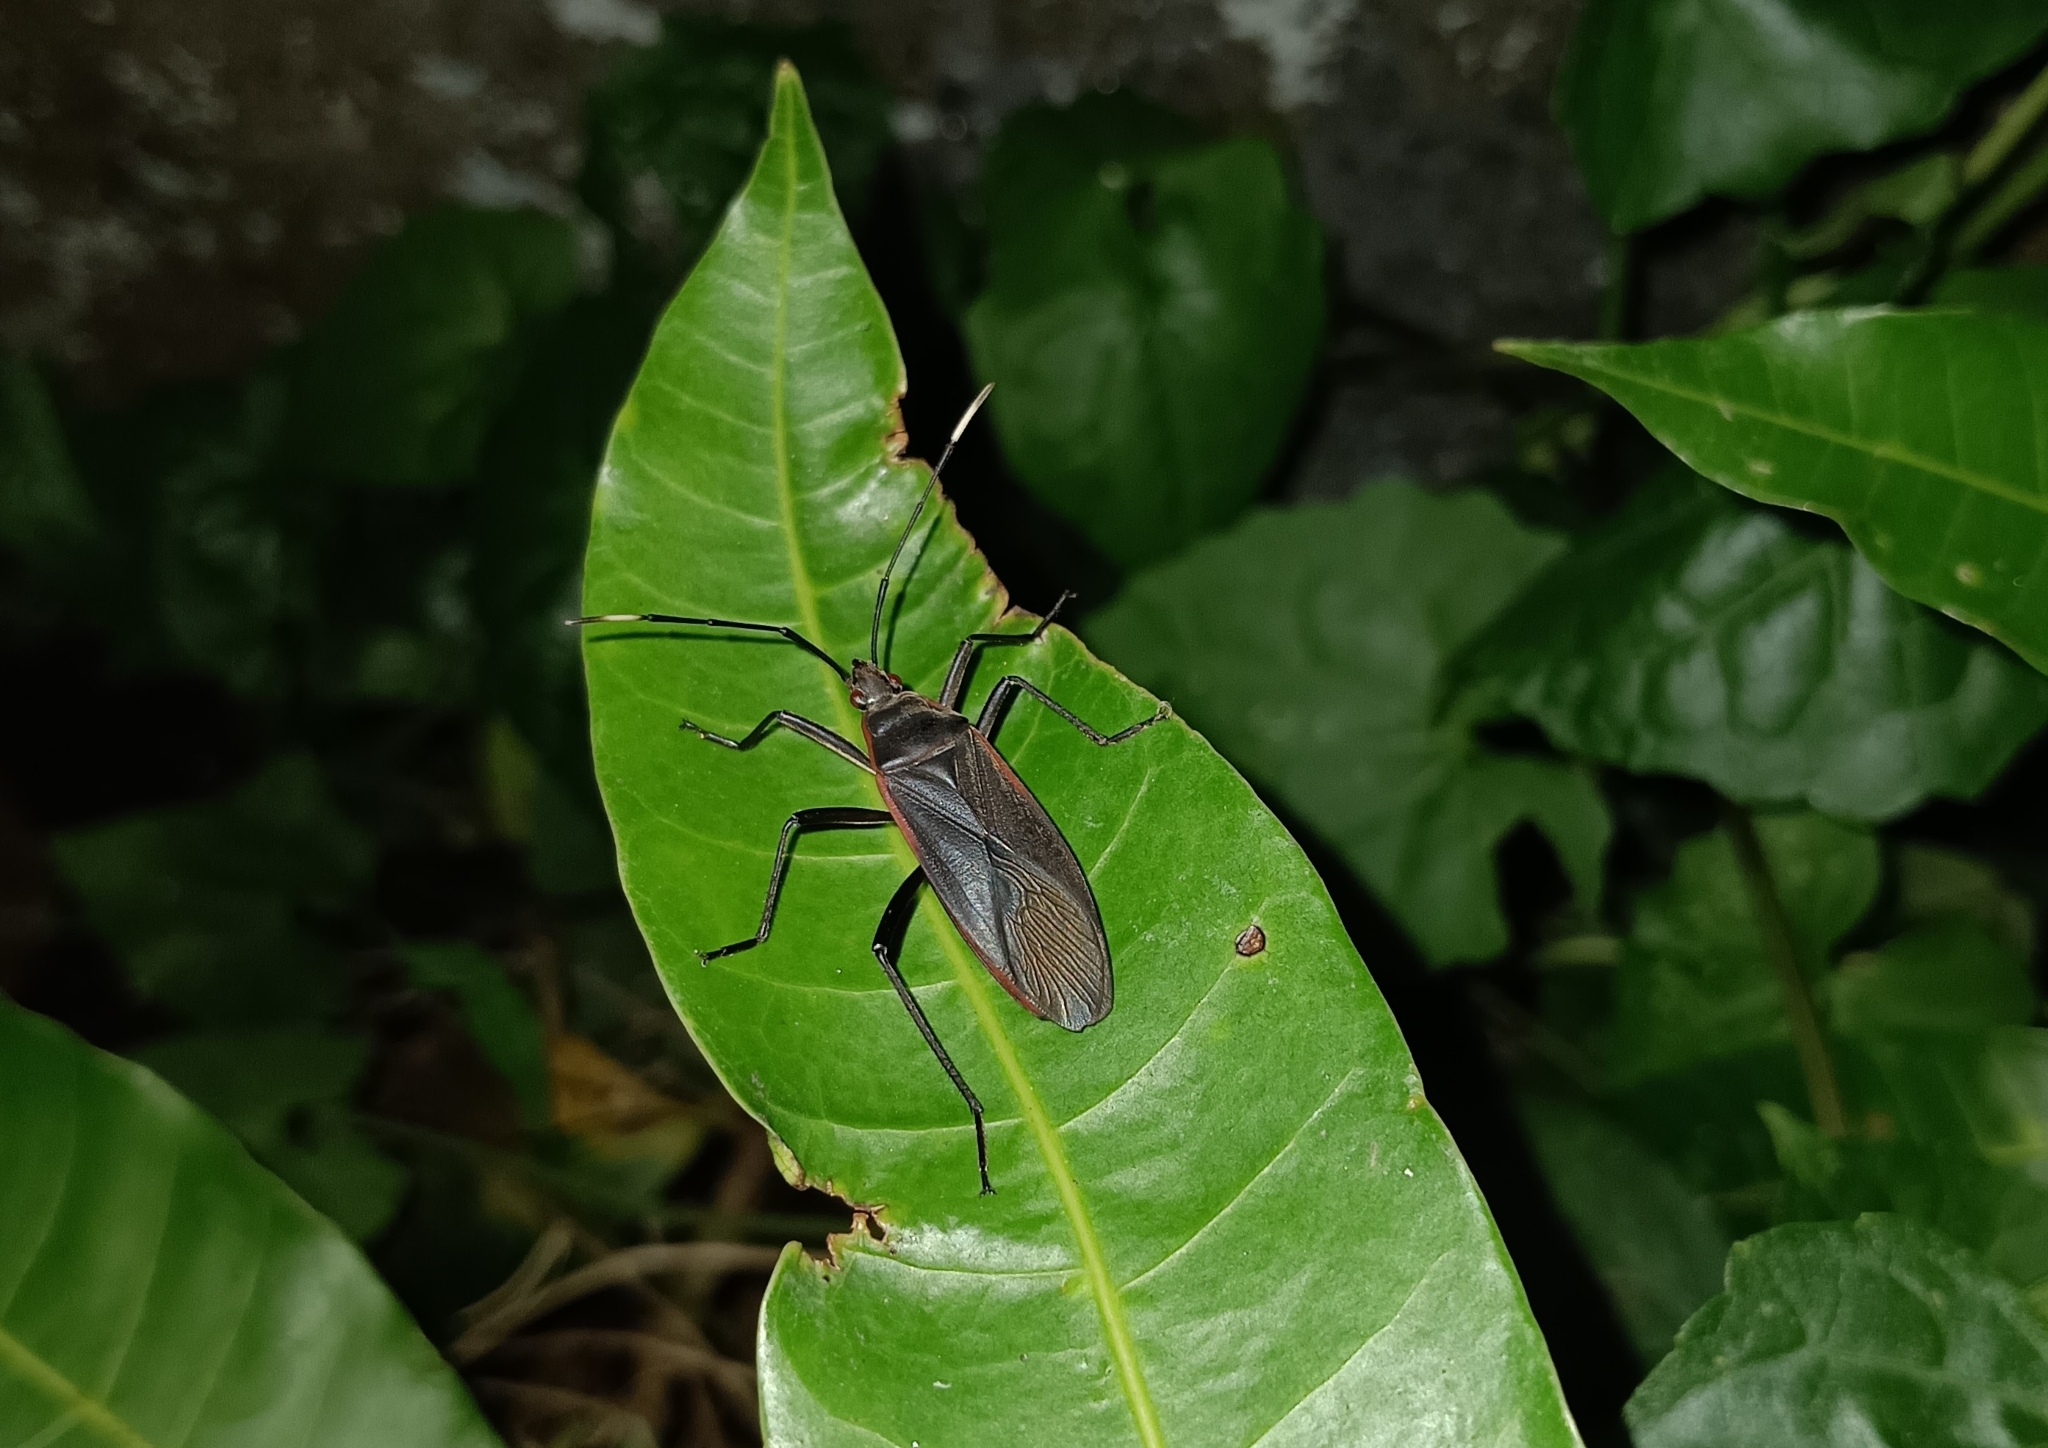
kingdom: Animalia
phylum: Arthropoda
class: Insecta
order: Hemiptera
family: Pyrrhocoridae
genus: Melamphaus
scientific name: Melamphaus
